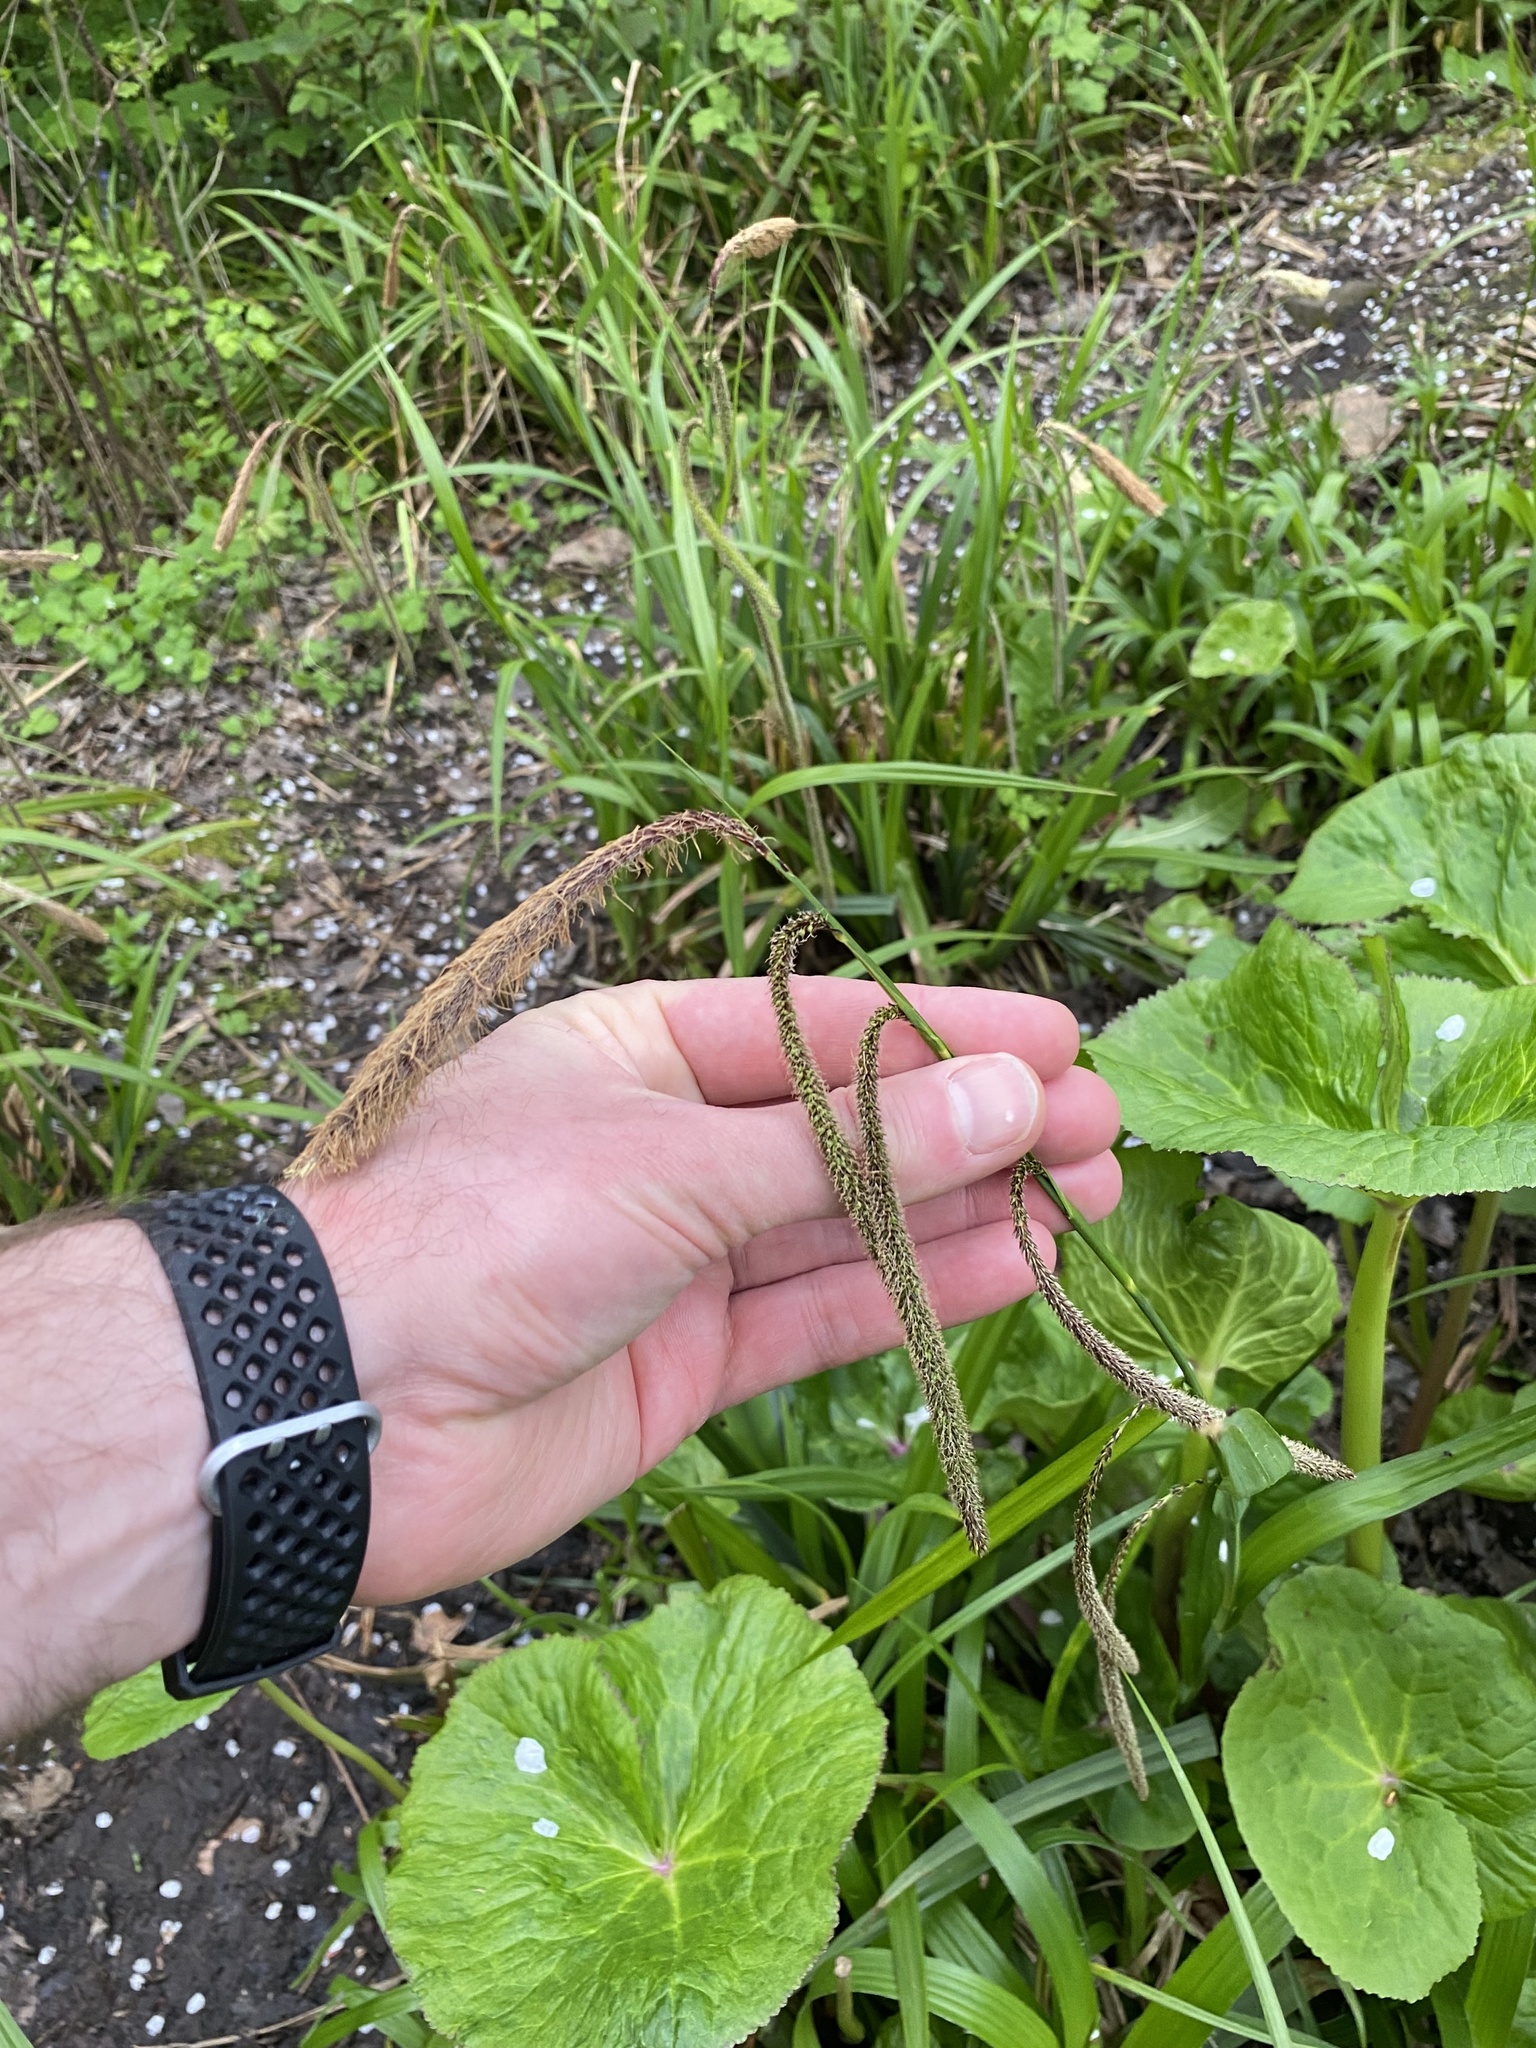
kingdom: Plantae
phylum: Tracheophyta
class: Liliopsida
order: Poales
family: Cyperaceae
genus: Carex
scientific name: Carex pendula
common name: Pendulous sedge
